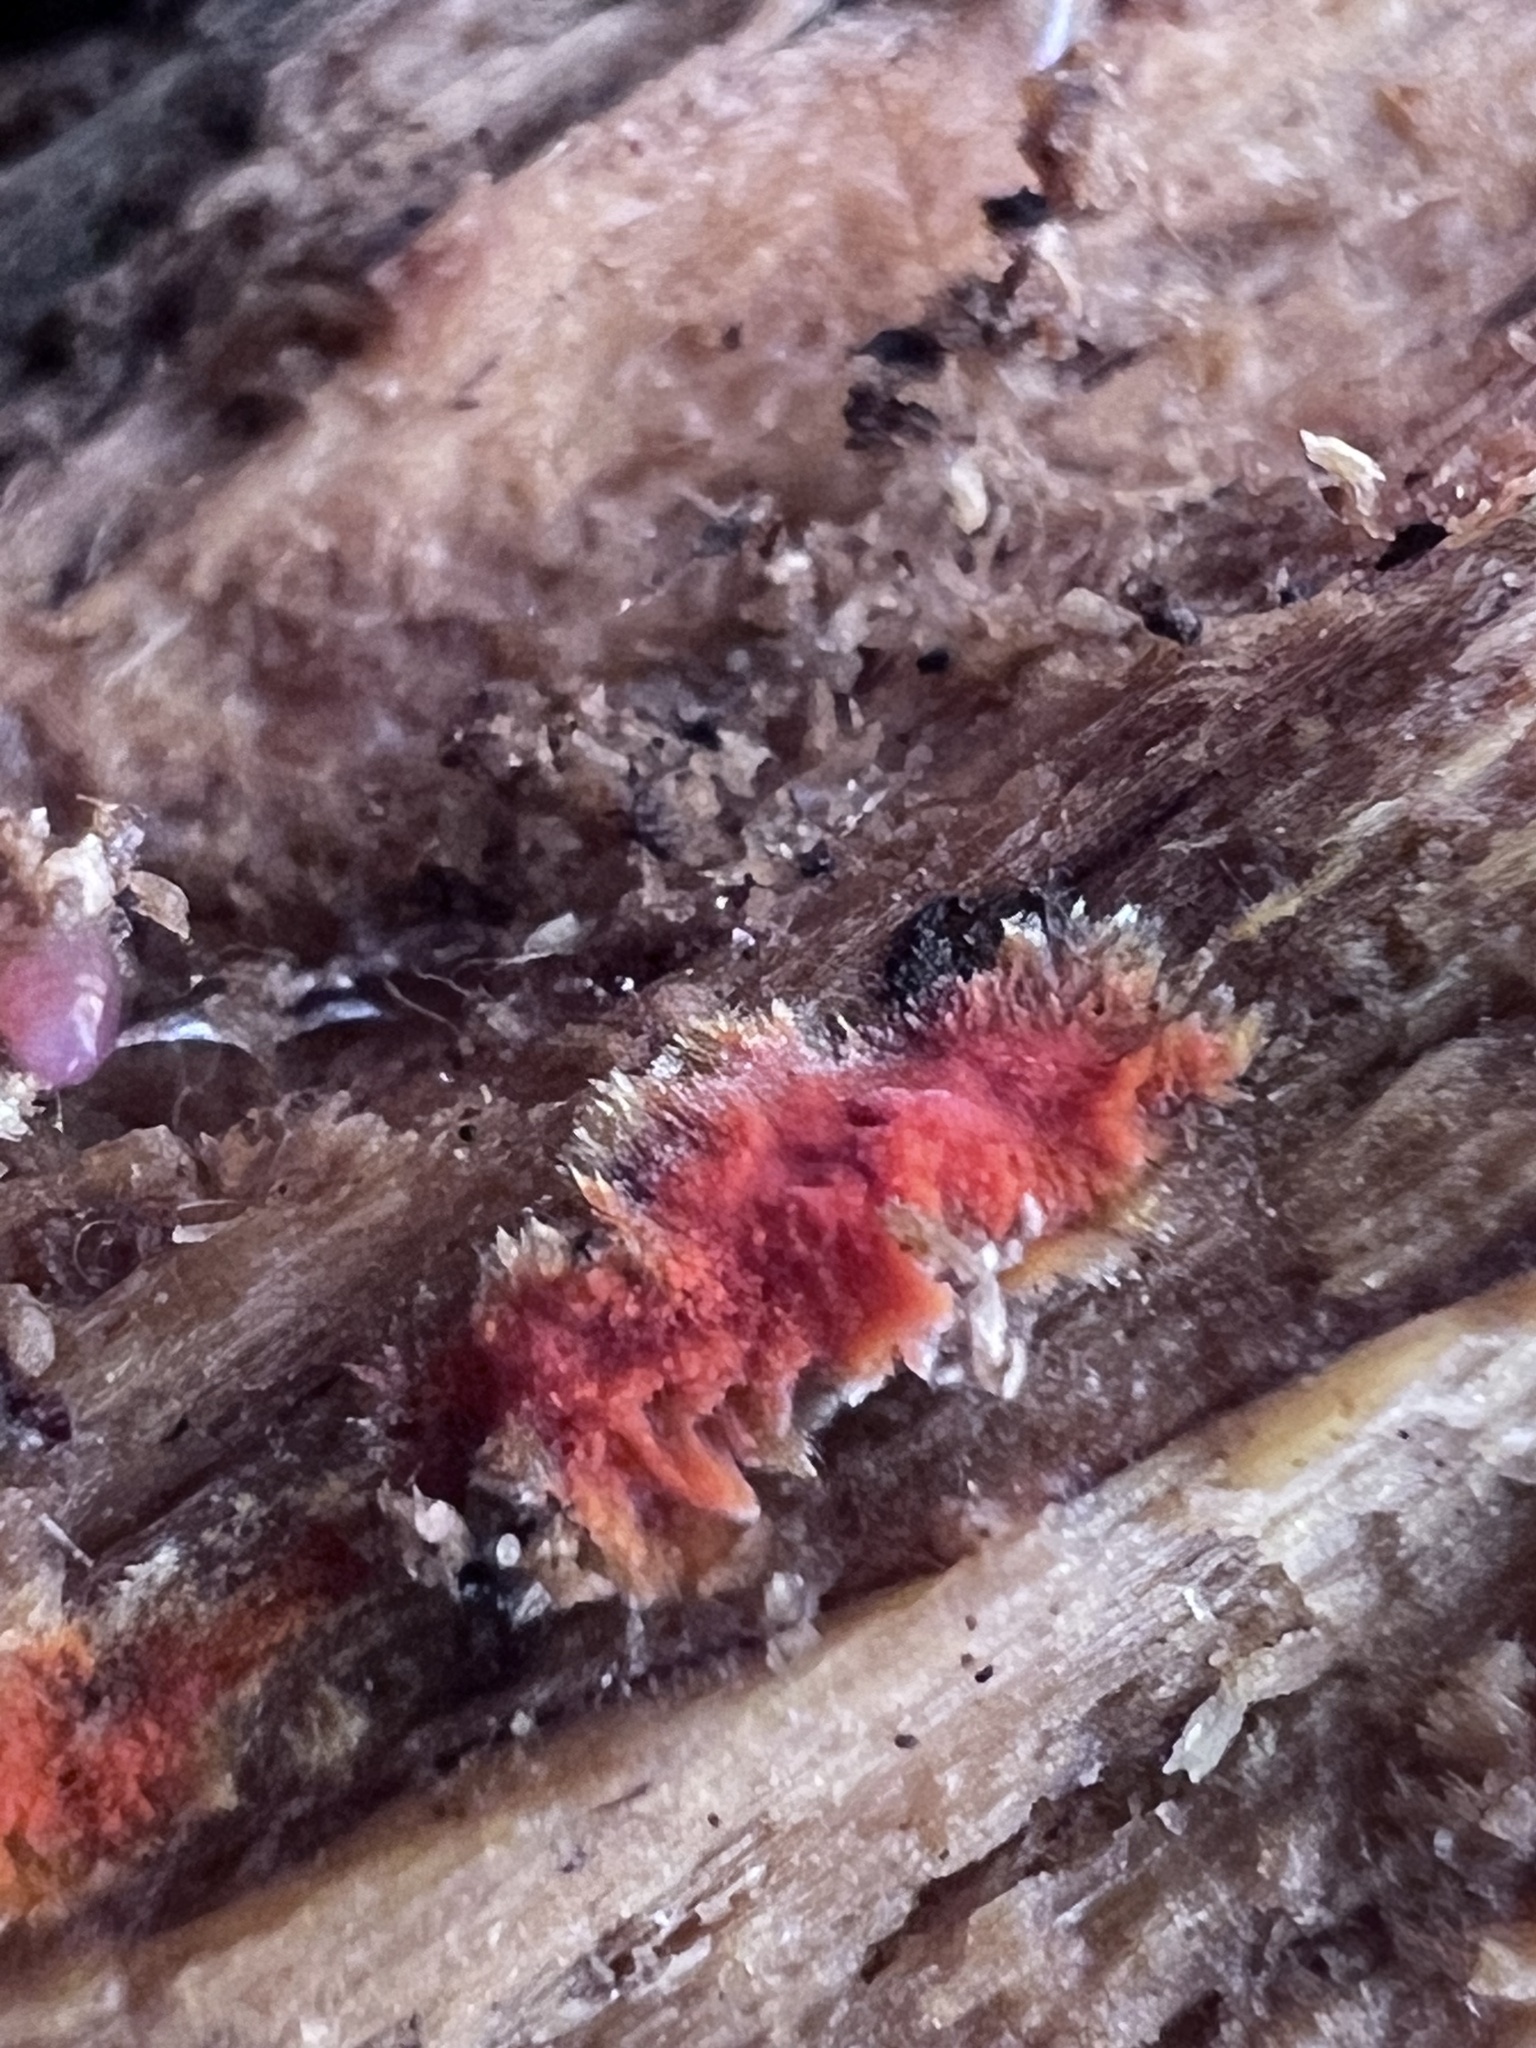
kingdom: Fungi
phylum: Basidiomycota
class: Agaricomycetes
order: Polyporales
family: Meruliaceae
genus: Phlebia
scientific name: Phlebia coccineofulva
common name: Scarlet waxcrust
